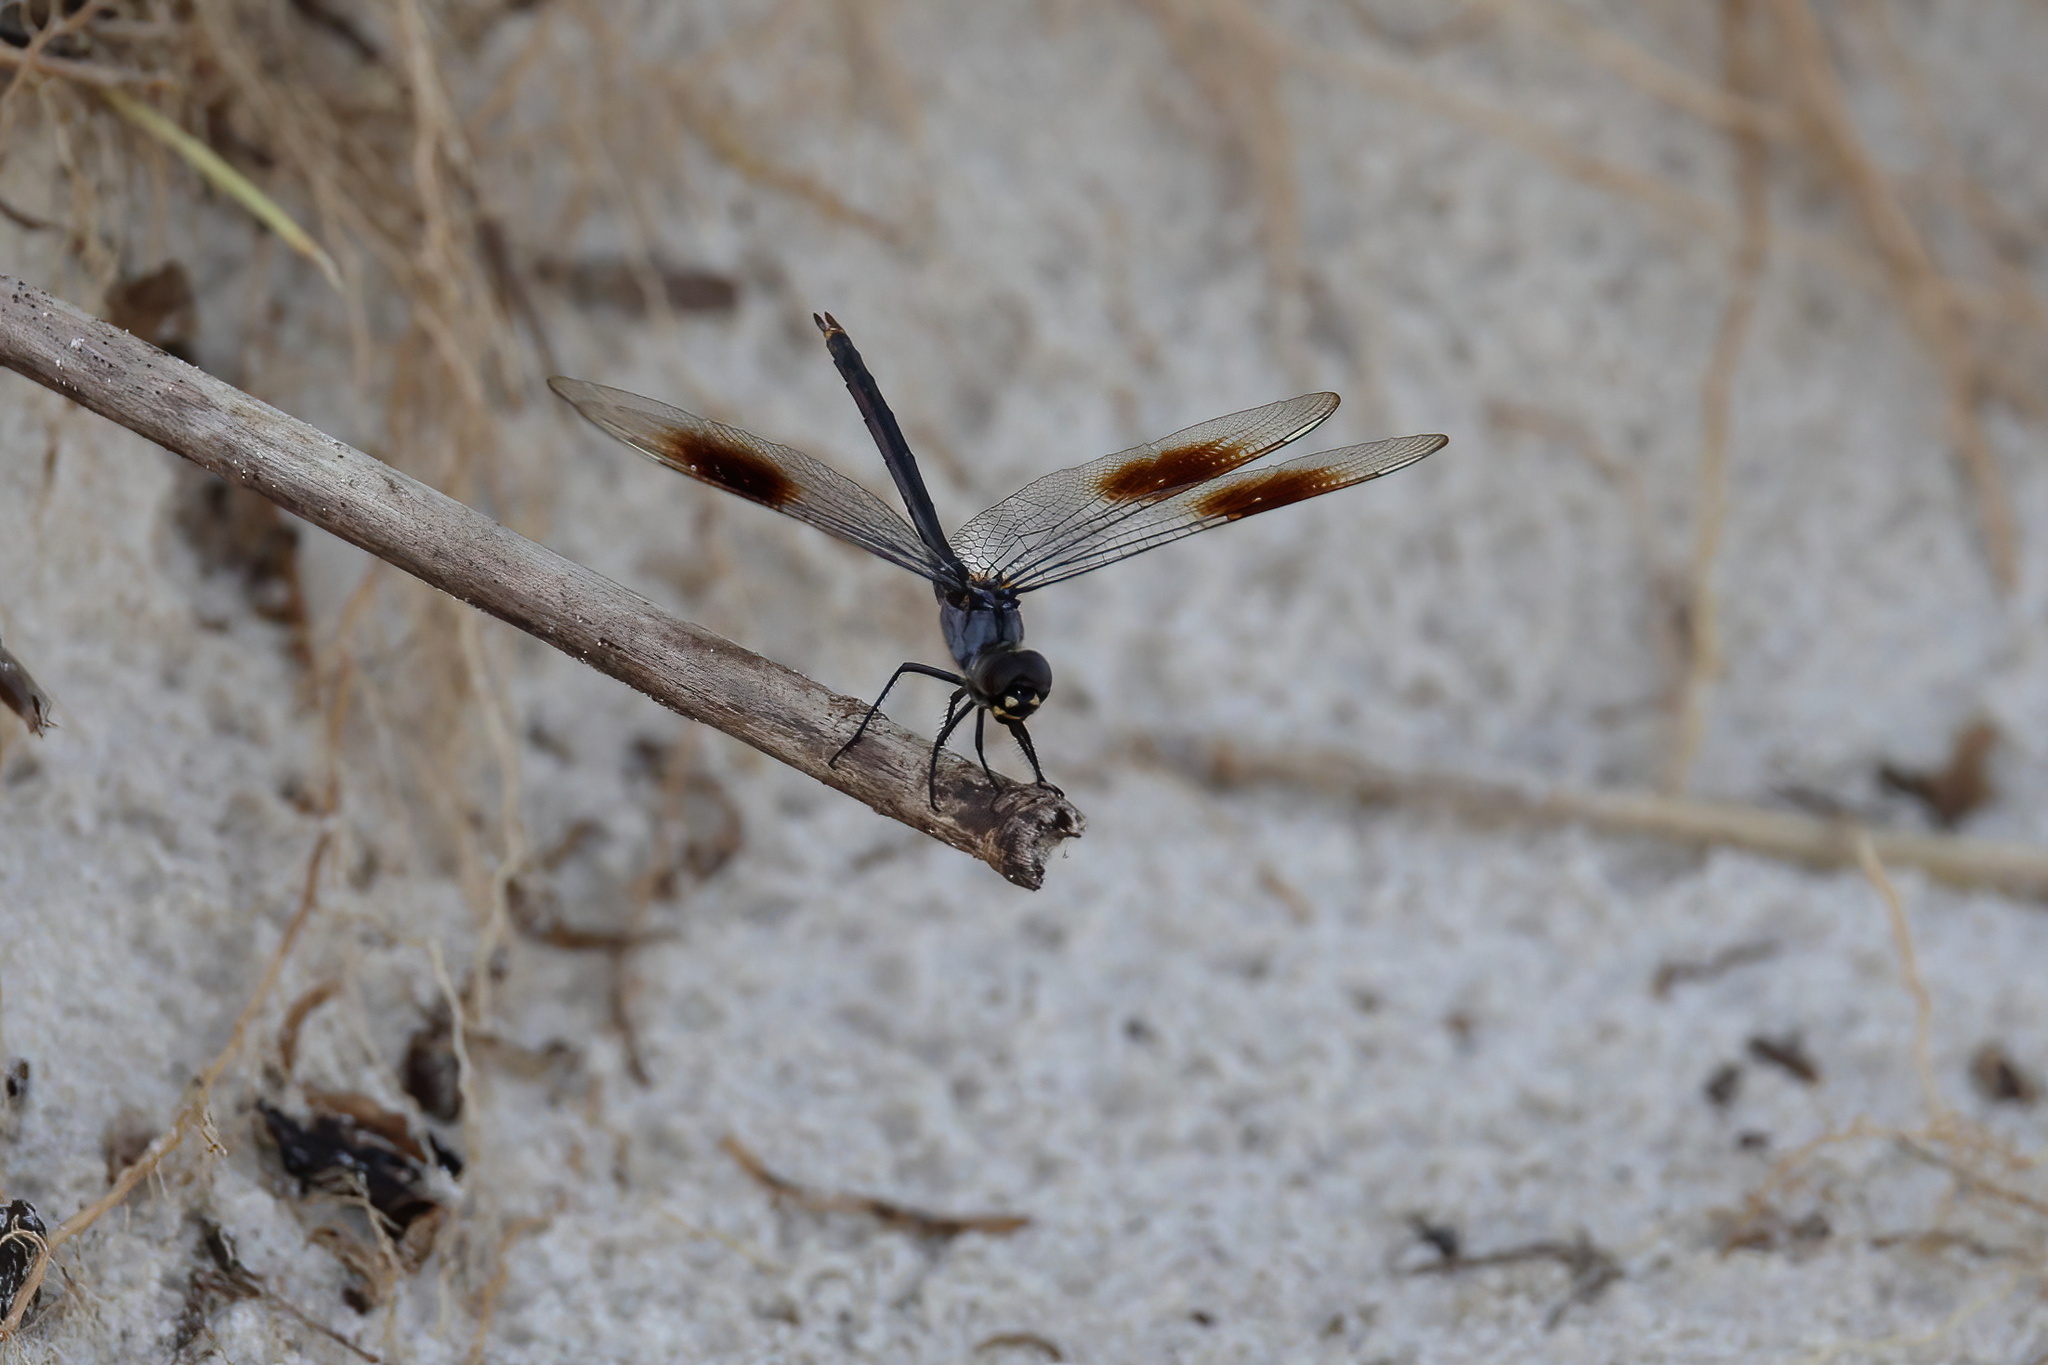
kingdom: Animalia
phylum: Arthropoda
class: Insecta
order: Odonata
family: Libellulidae
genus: Brachymesia
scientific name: Brachymesia gravida
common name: Four-spotted pennant
